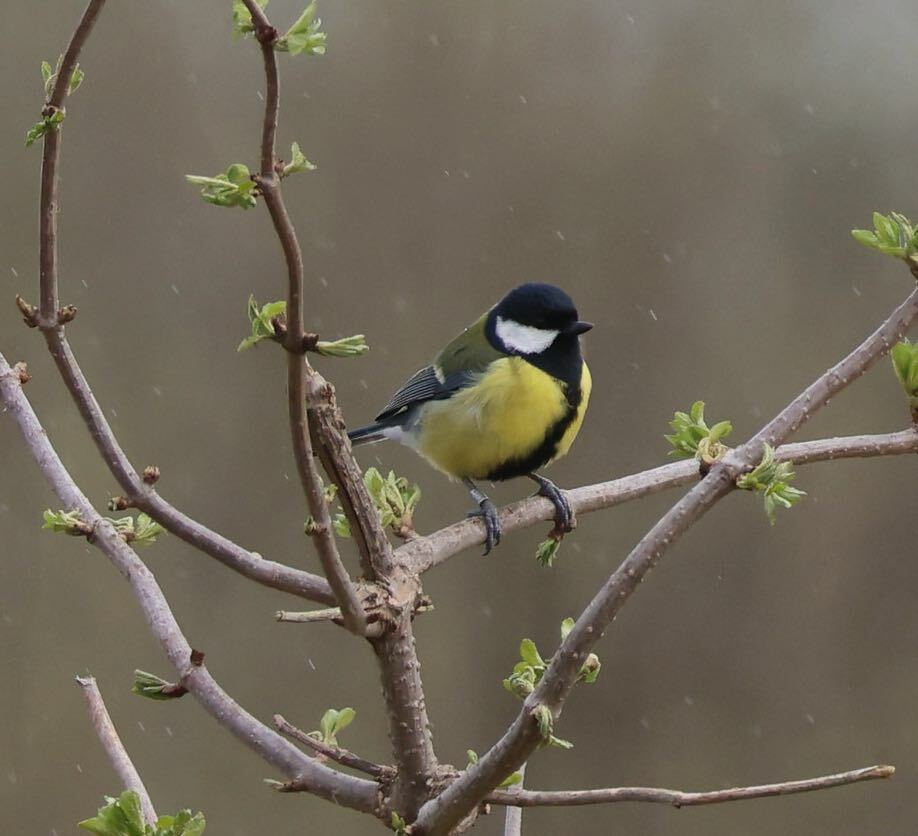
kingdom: Animalia
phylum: Chordata
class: Aves
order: Passeriformes
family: Paridae
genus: Parus
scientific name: Parus major
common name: Great tit
